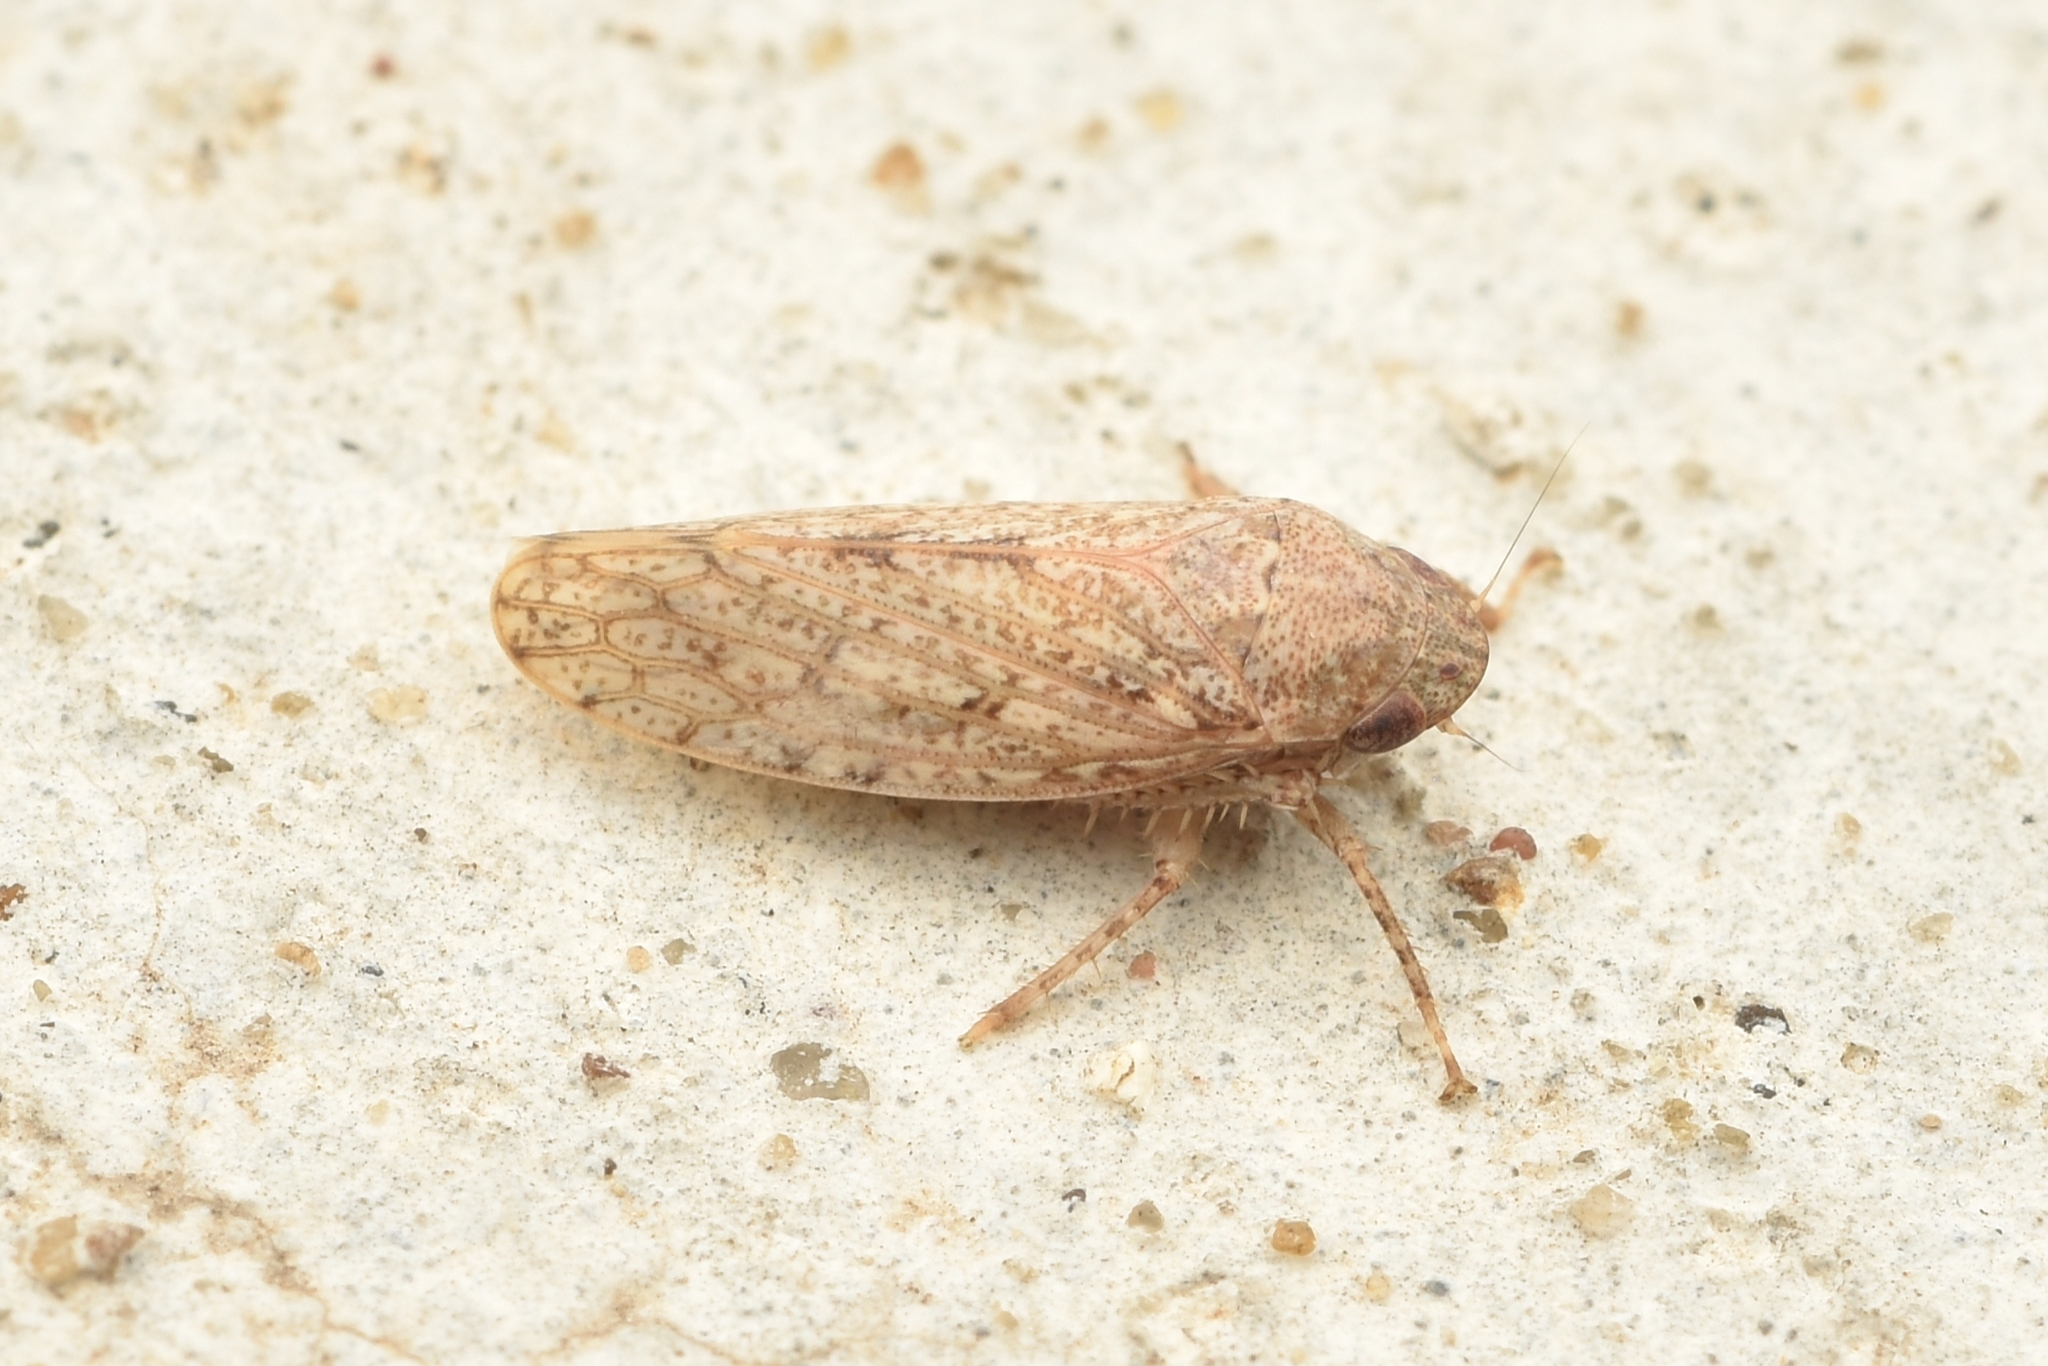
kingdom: Animalia
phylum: Arthropoda
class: Insecta
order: Hemiptera
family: Cicadellidae
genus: Curtara
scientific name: Curtara insularis
